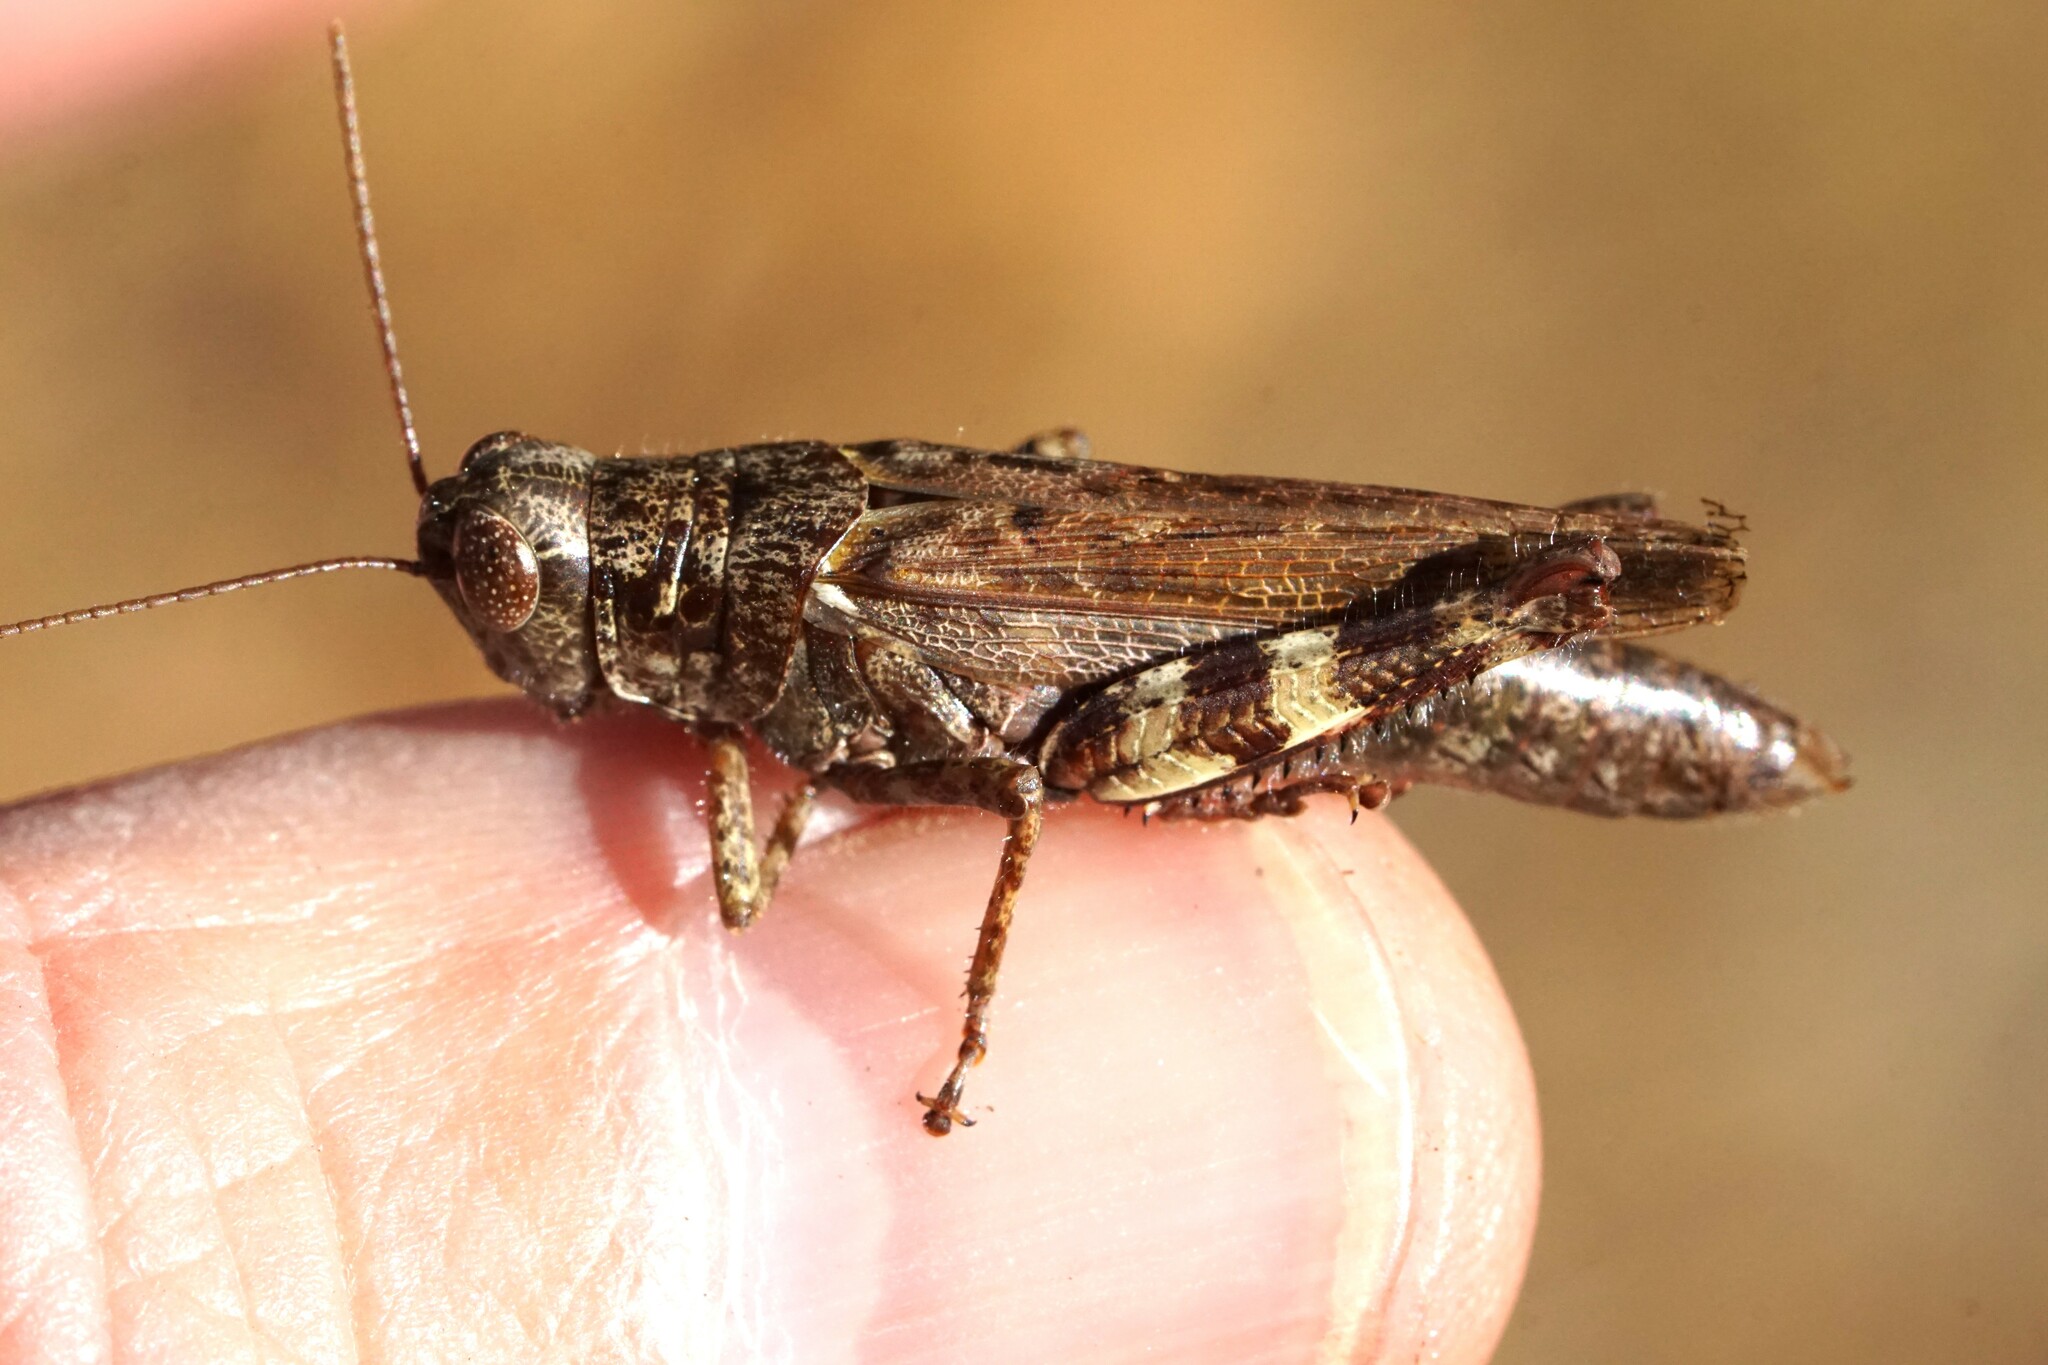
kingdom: Animalia
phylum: Arthropoda
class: Insecta
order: Orthoptera
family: Acrididae
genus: Melanoplus
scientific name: Melanoplus punctulatus
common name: Pine-tree spur-throat grasshopper
